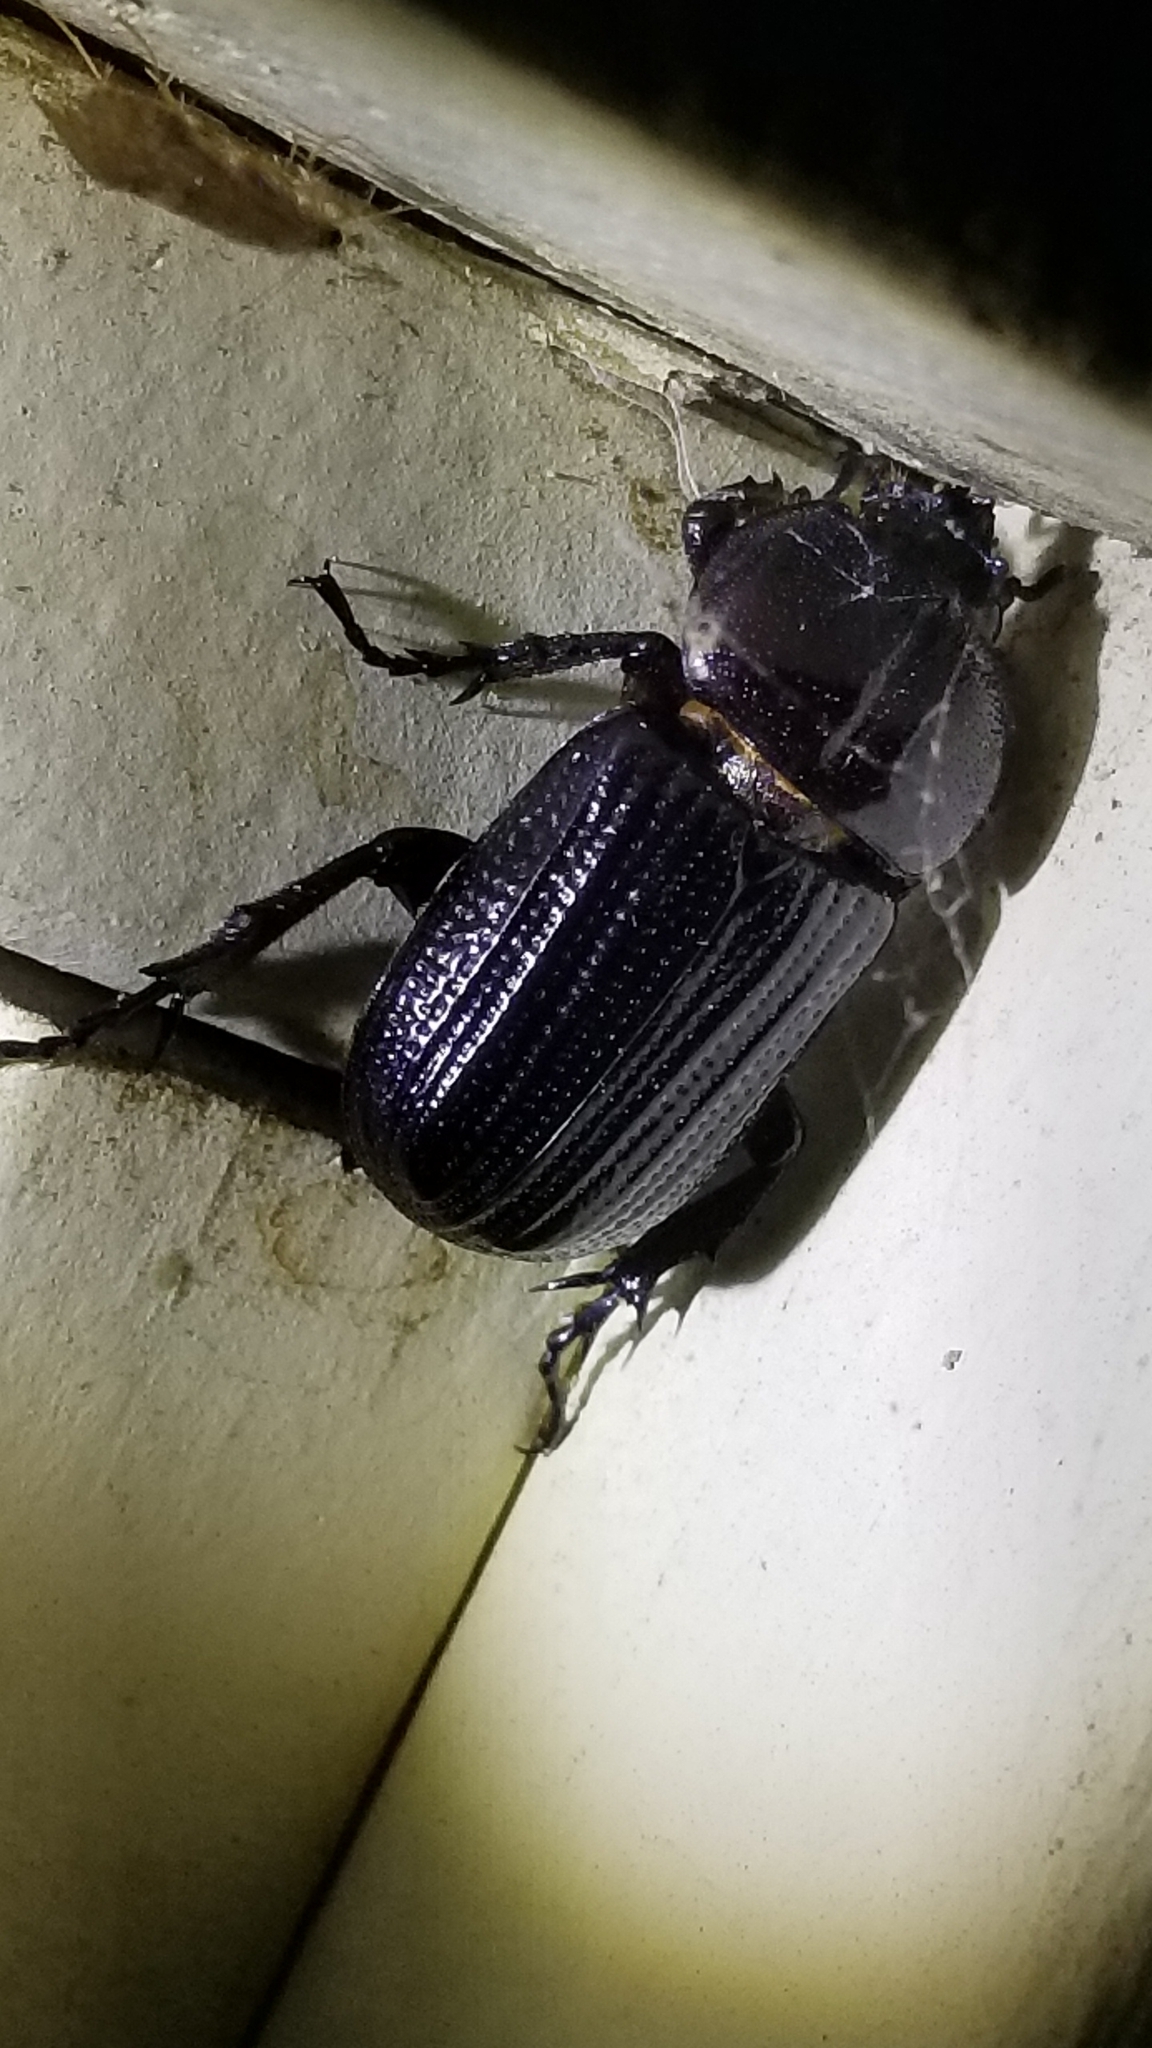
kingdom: Animalia
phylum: Arthropoda
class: Insecta
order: Coleoptera
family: Scarabaeidae
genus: Phileurus
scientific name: Phileurus valgus
